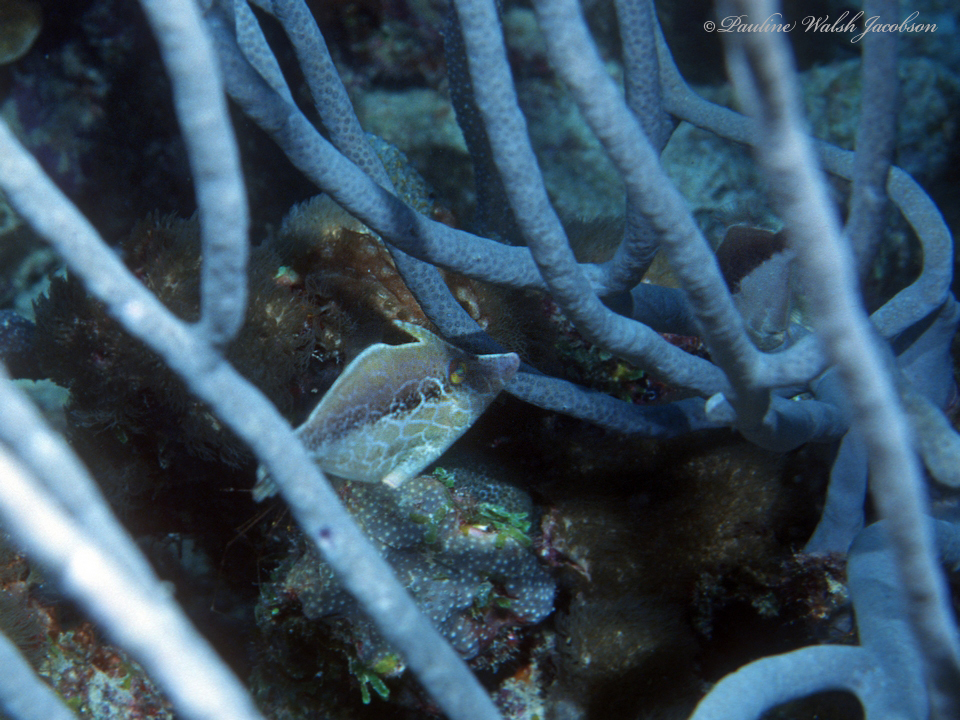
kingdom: Animalia
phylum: Chordata
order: Tetraodontiformes
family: Monacanthidae
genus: Monacanthus
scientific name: Monacanthus tuckeri
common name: Slender filefish
